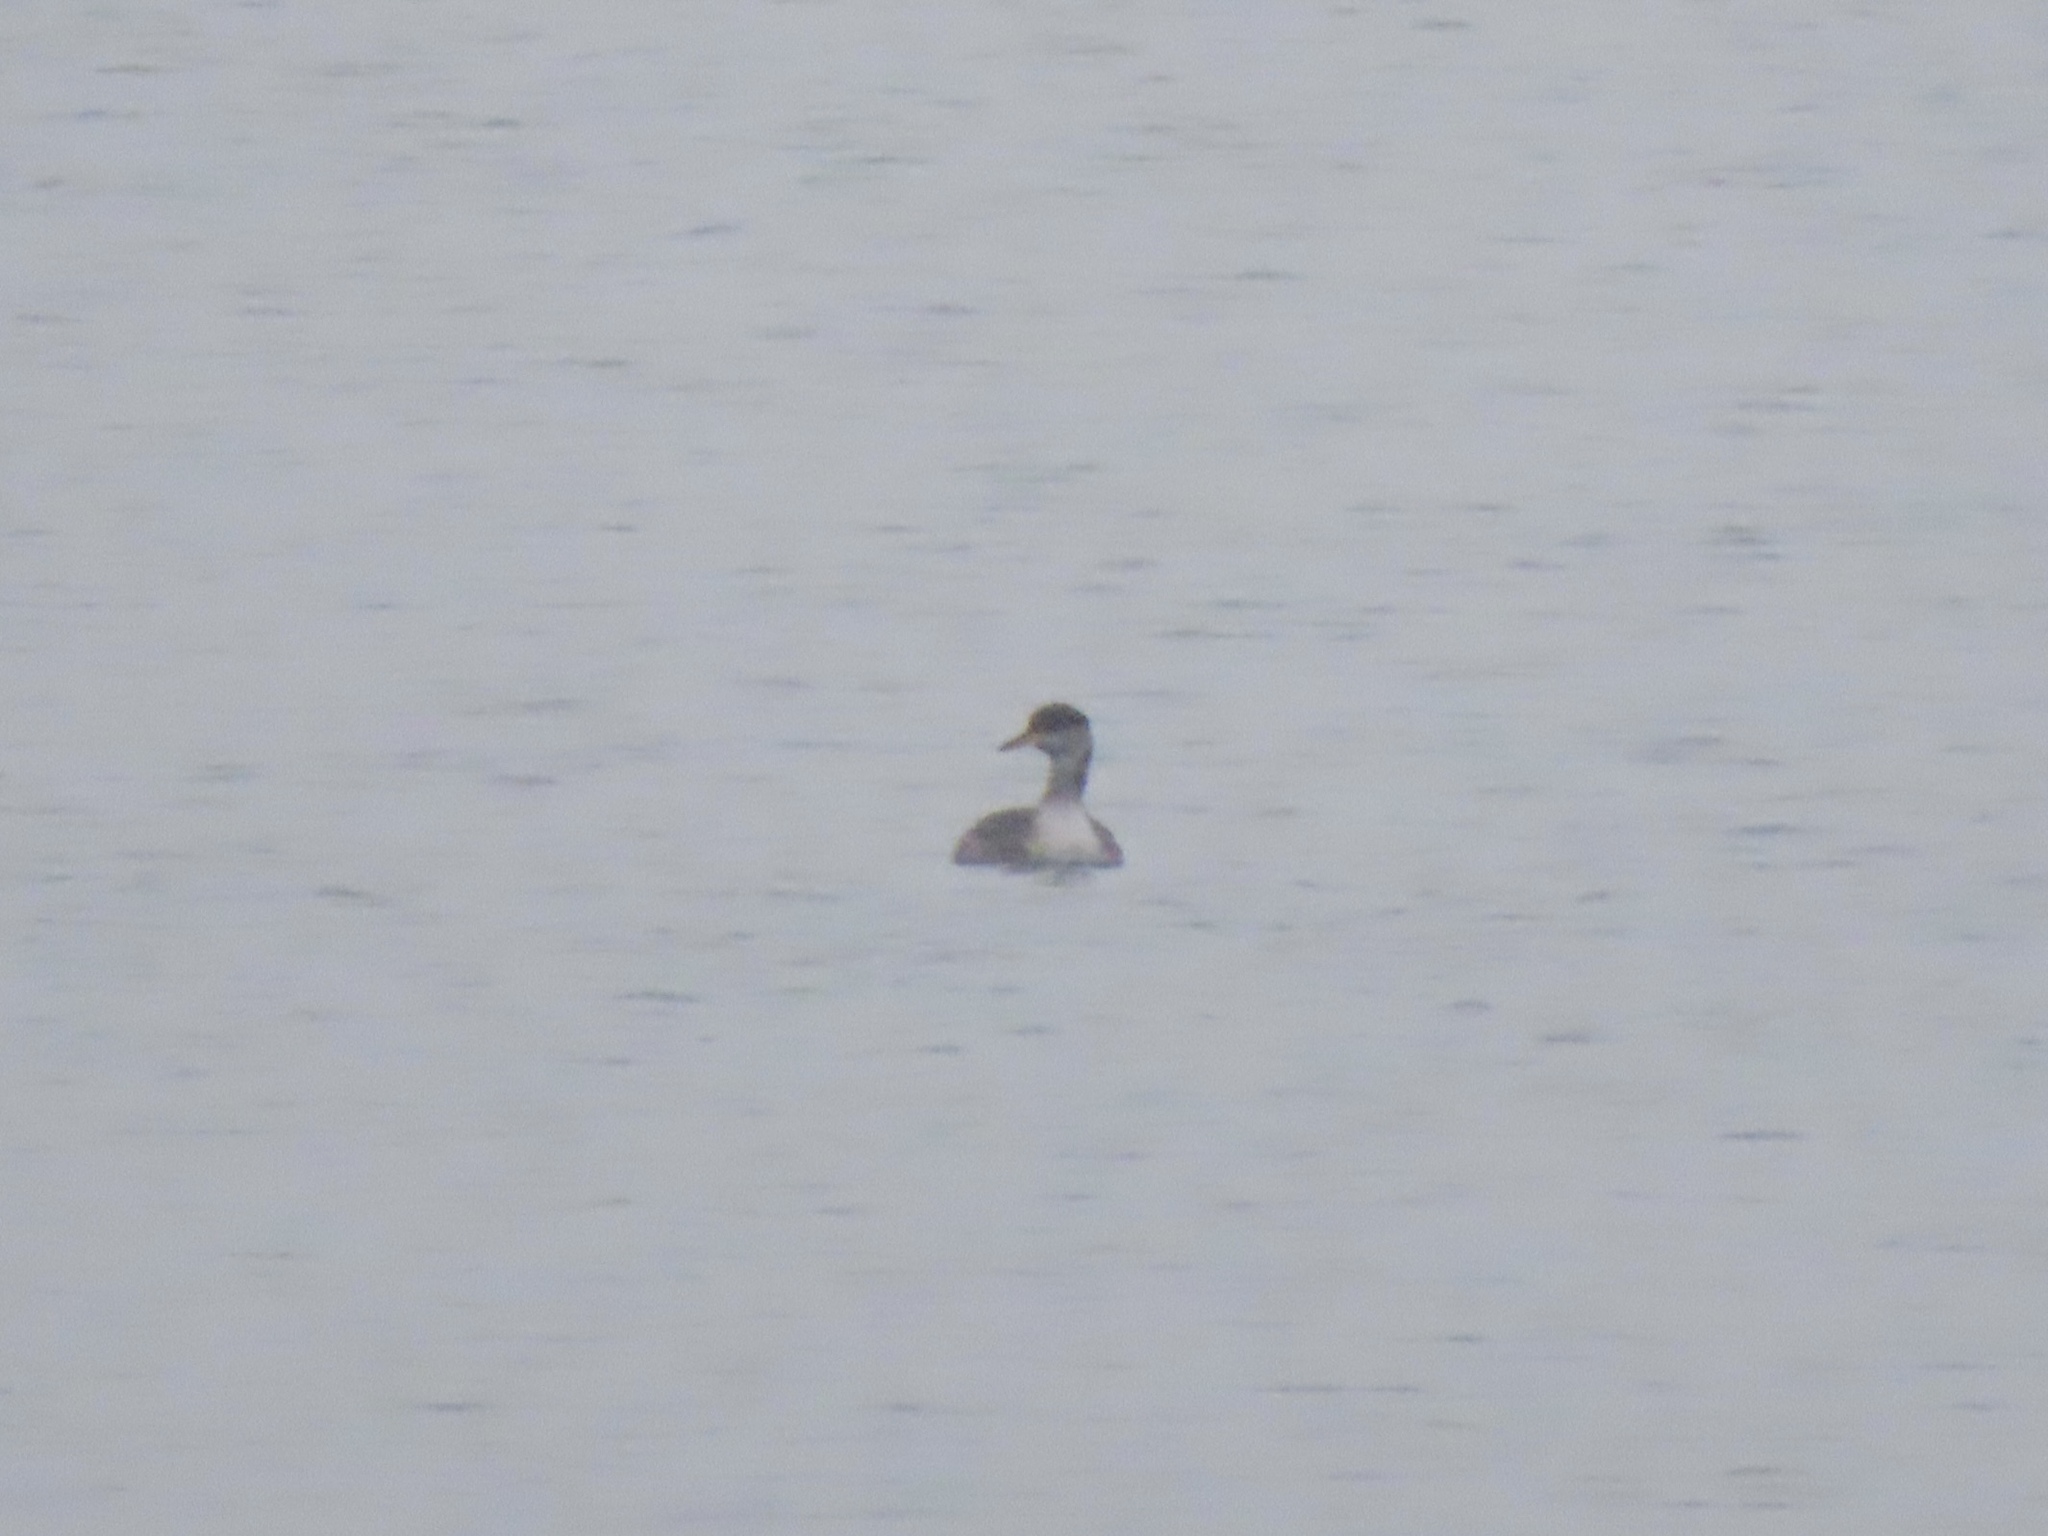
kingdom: Animalia
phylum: Chordata
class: Aves
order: Podicipediformes
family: Podicipedidae
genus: Podiceps
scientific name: Podiceps grisegena
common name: Red-necked grebe
